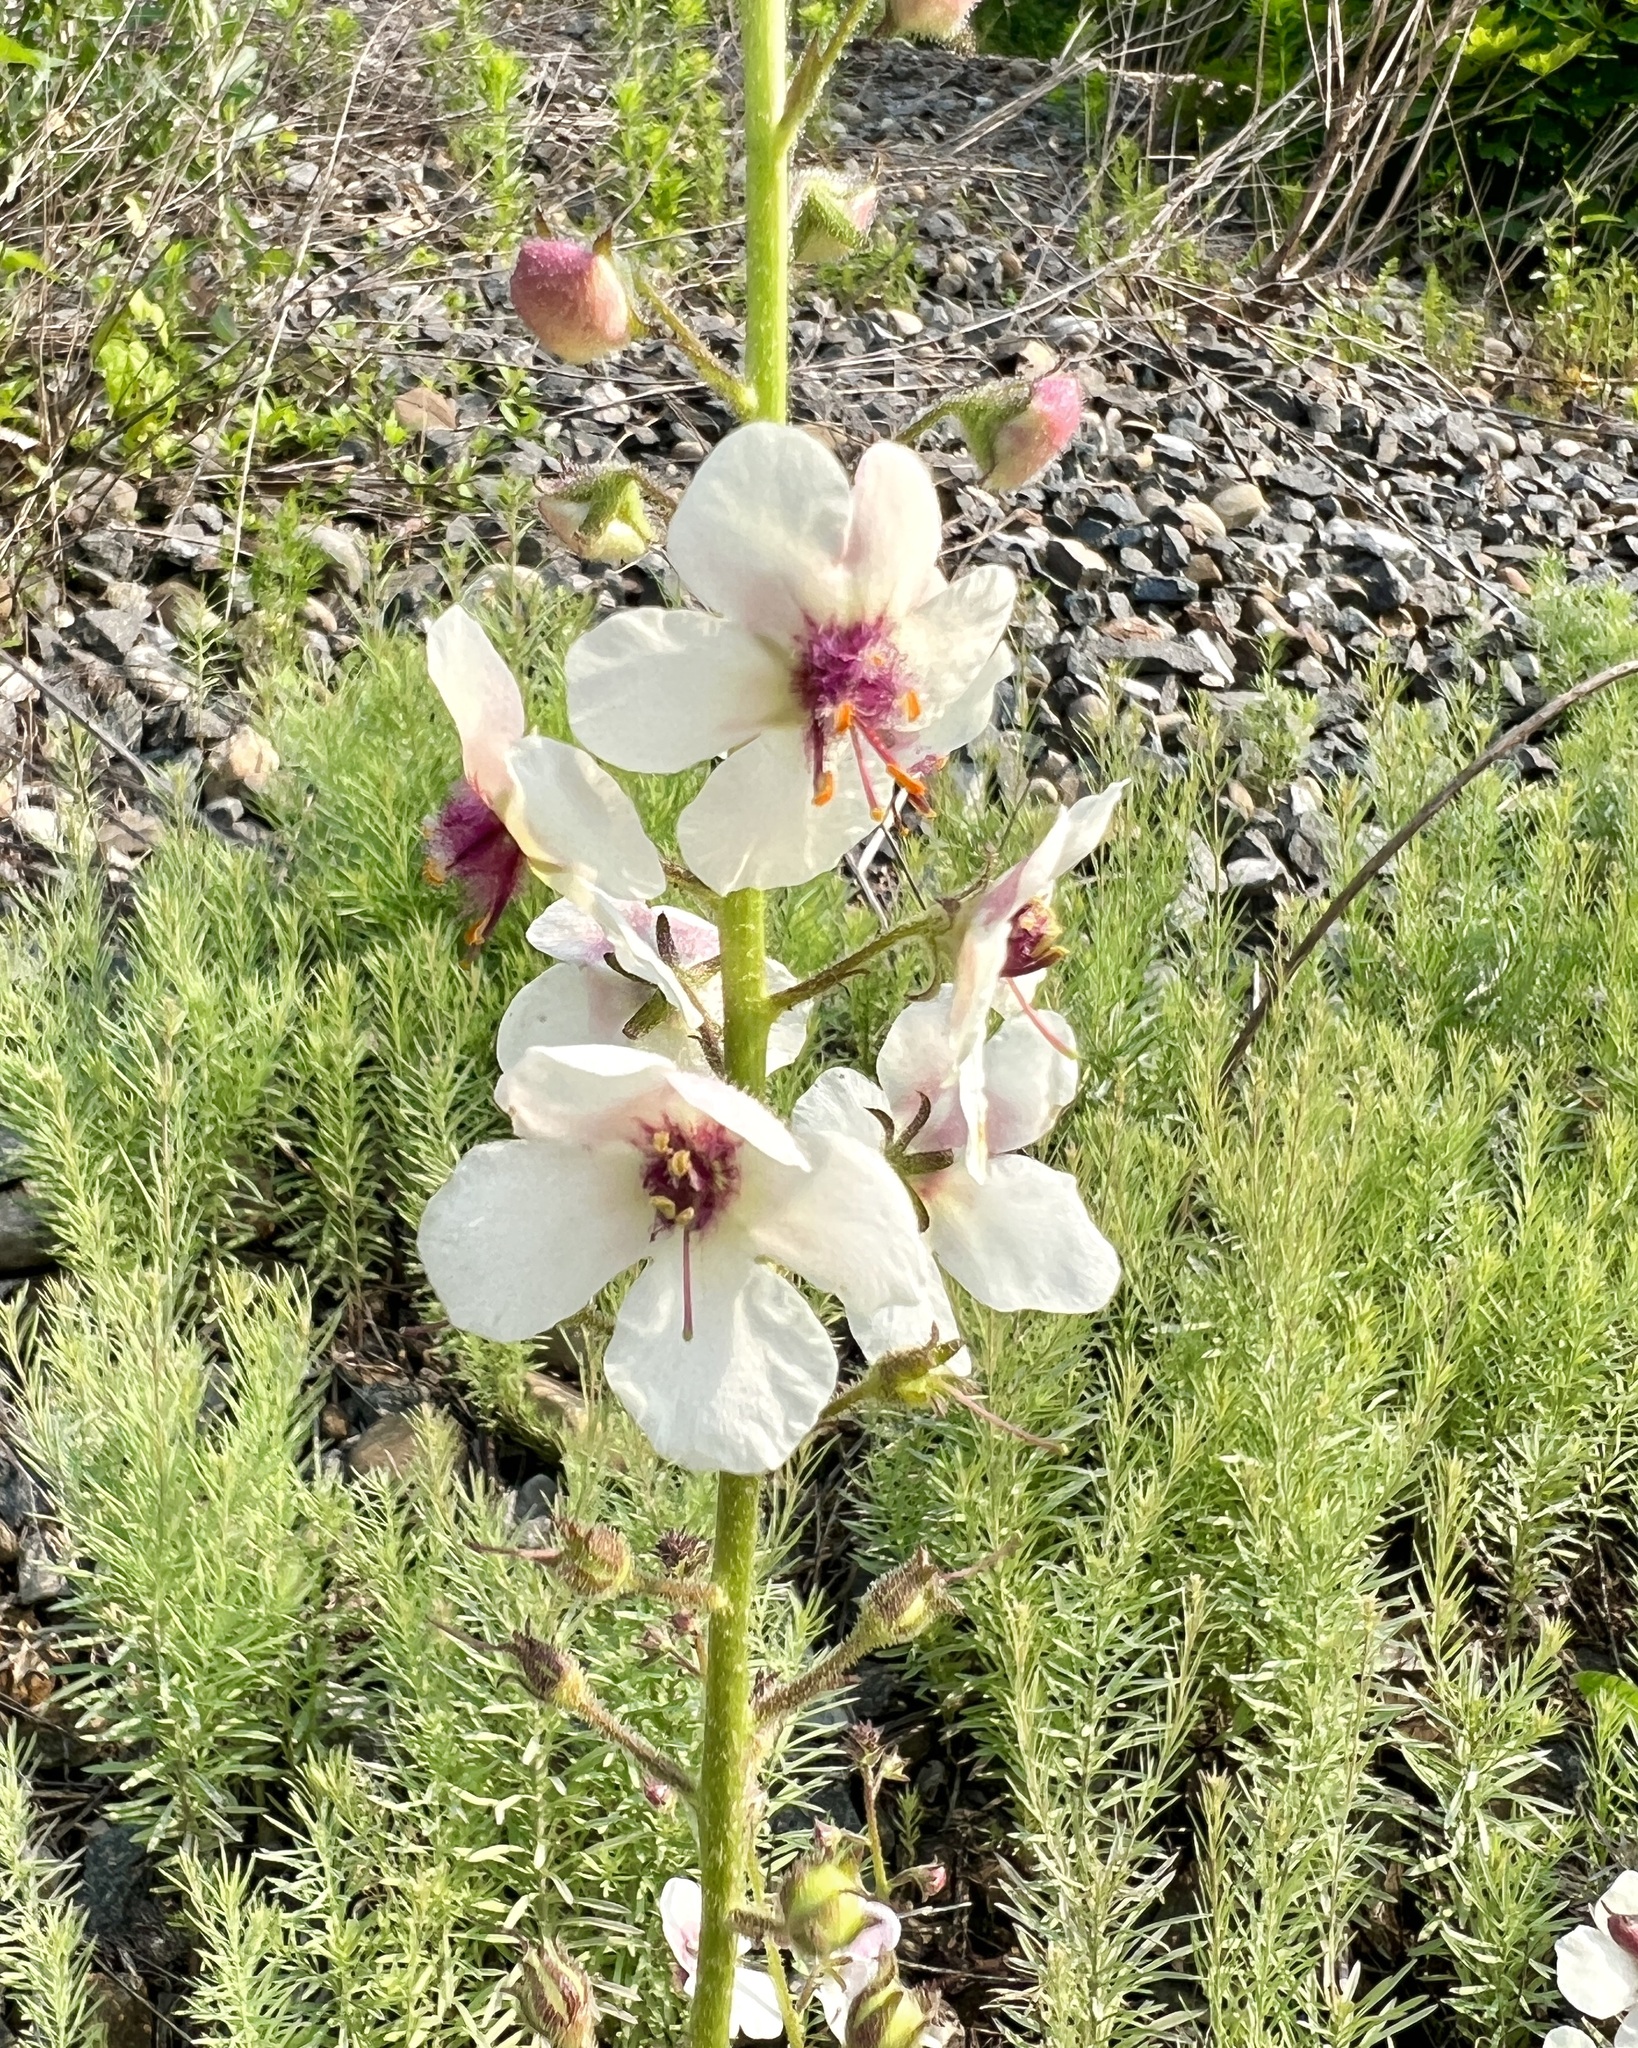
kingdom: Plantae
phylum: Tracheophyta
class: Magnoliopsida
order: Lamiales
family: Scrophulariaceae
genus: Verbascum
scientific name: Verbascum blattaria
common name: Moth mullein
